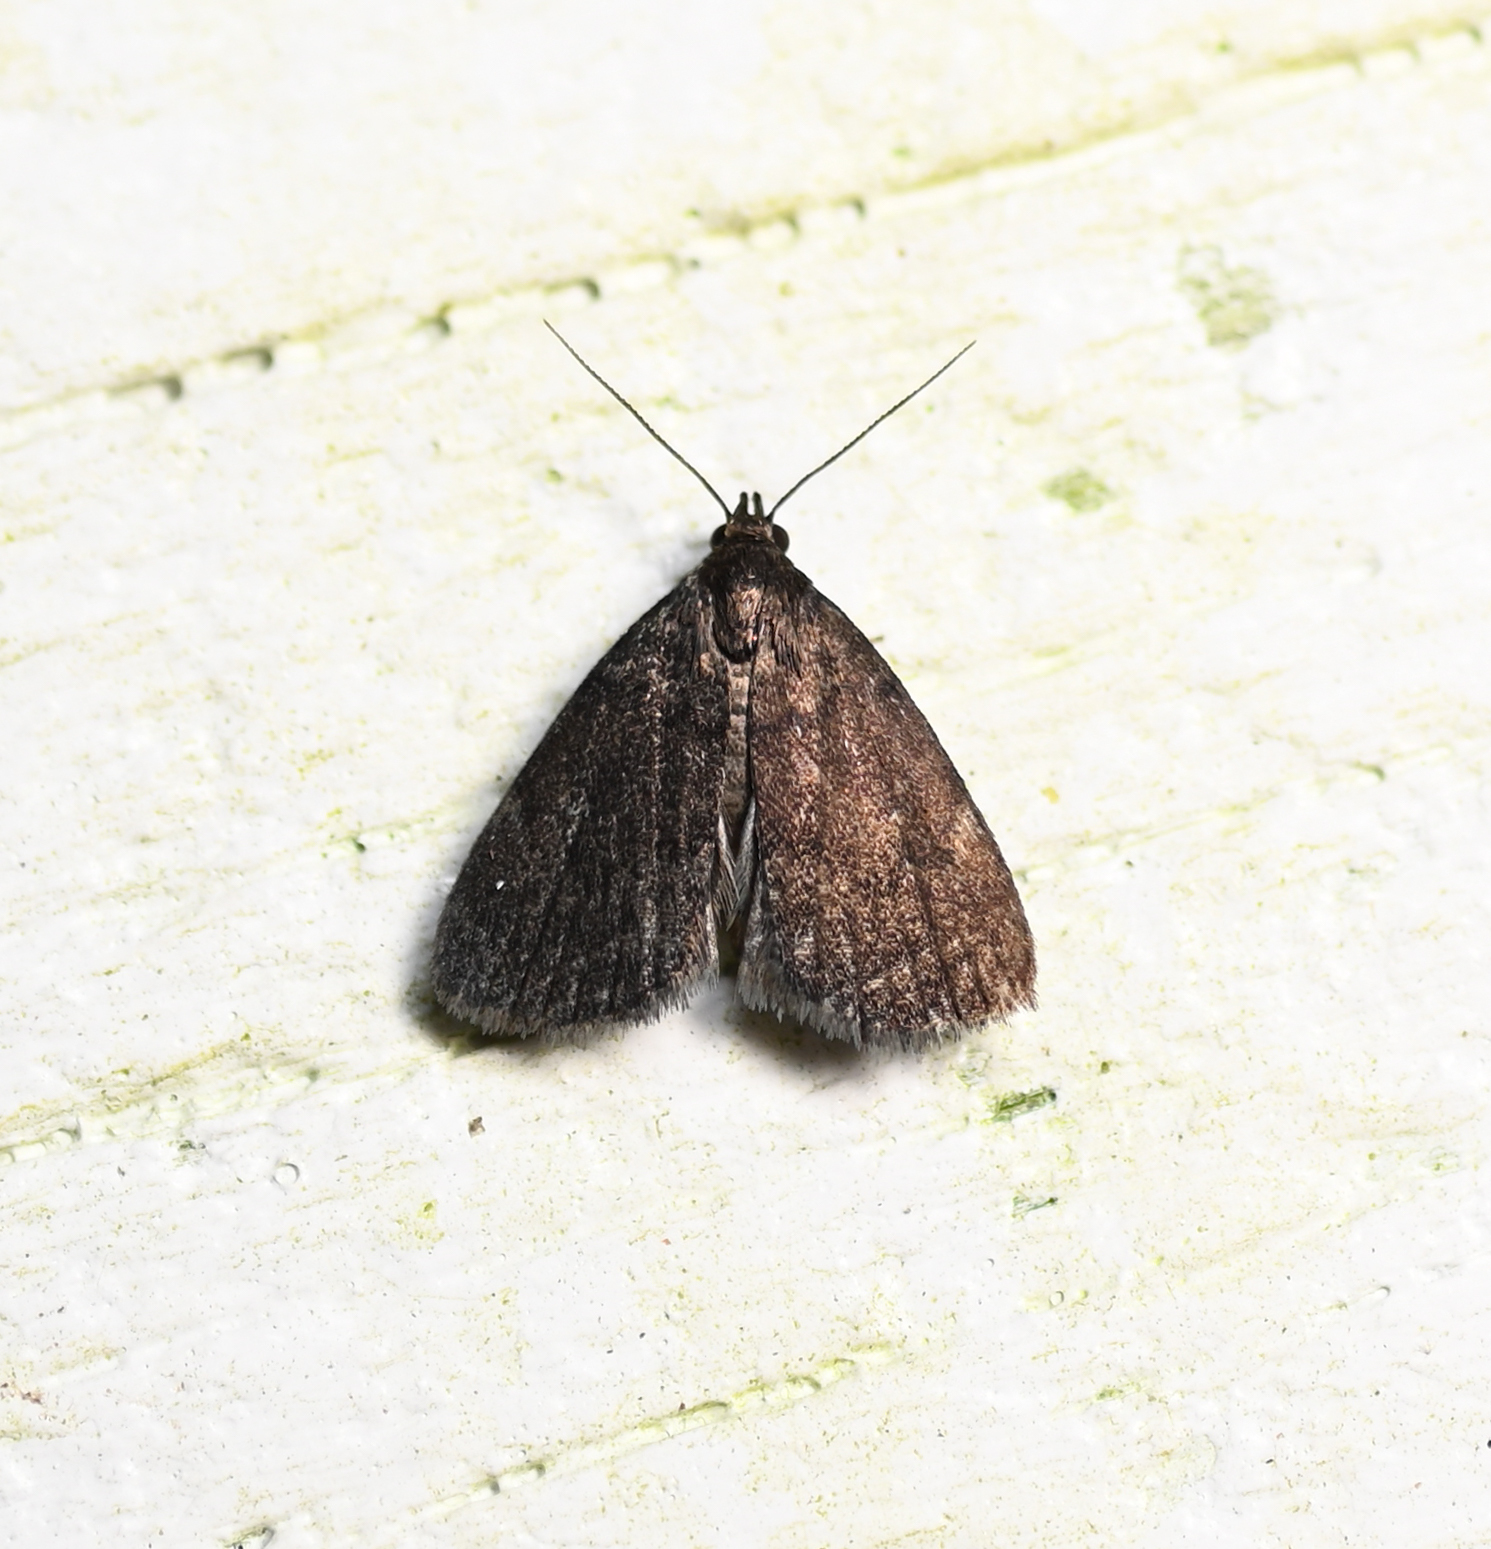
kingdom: Animalia
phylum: Arthropoda
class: Insecta
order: Lepidoptera
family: Erebidae
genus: Idia
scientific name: Idia rotundalis
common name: Rotund idia moth
